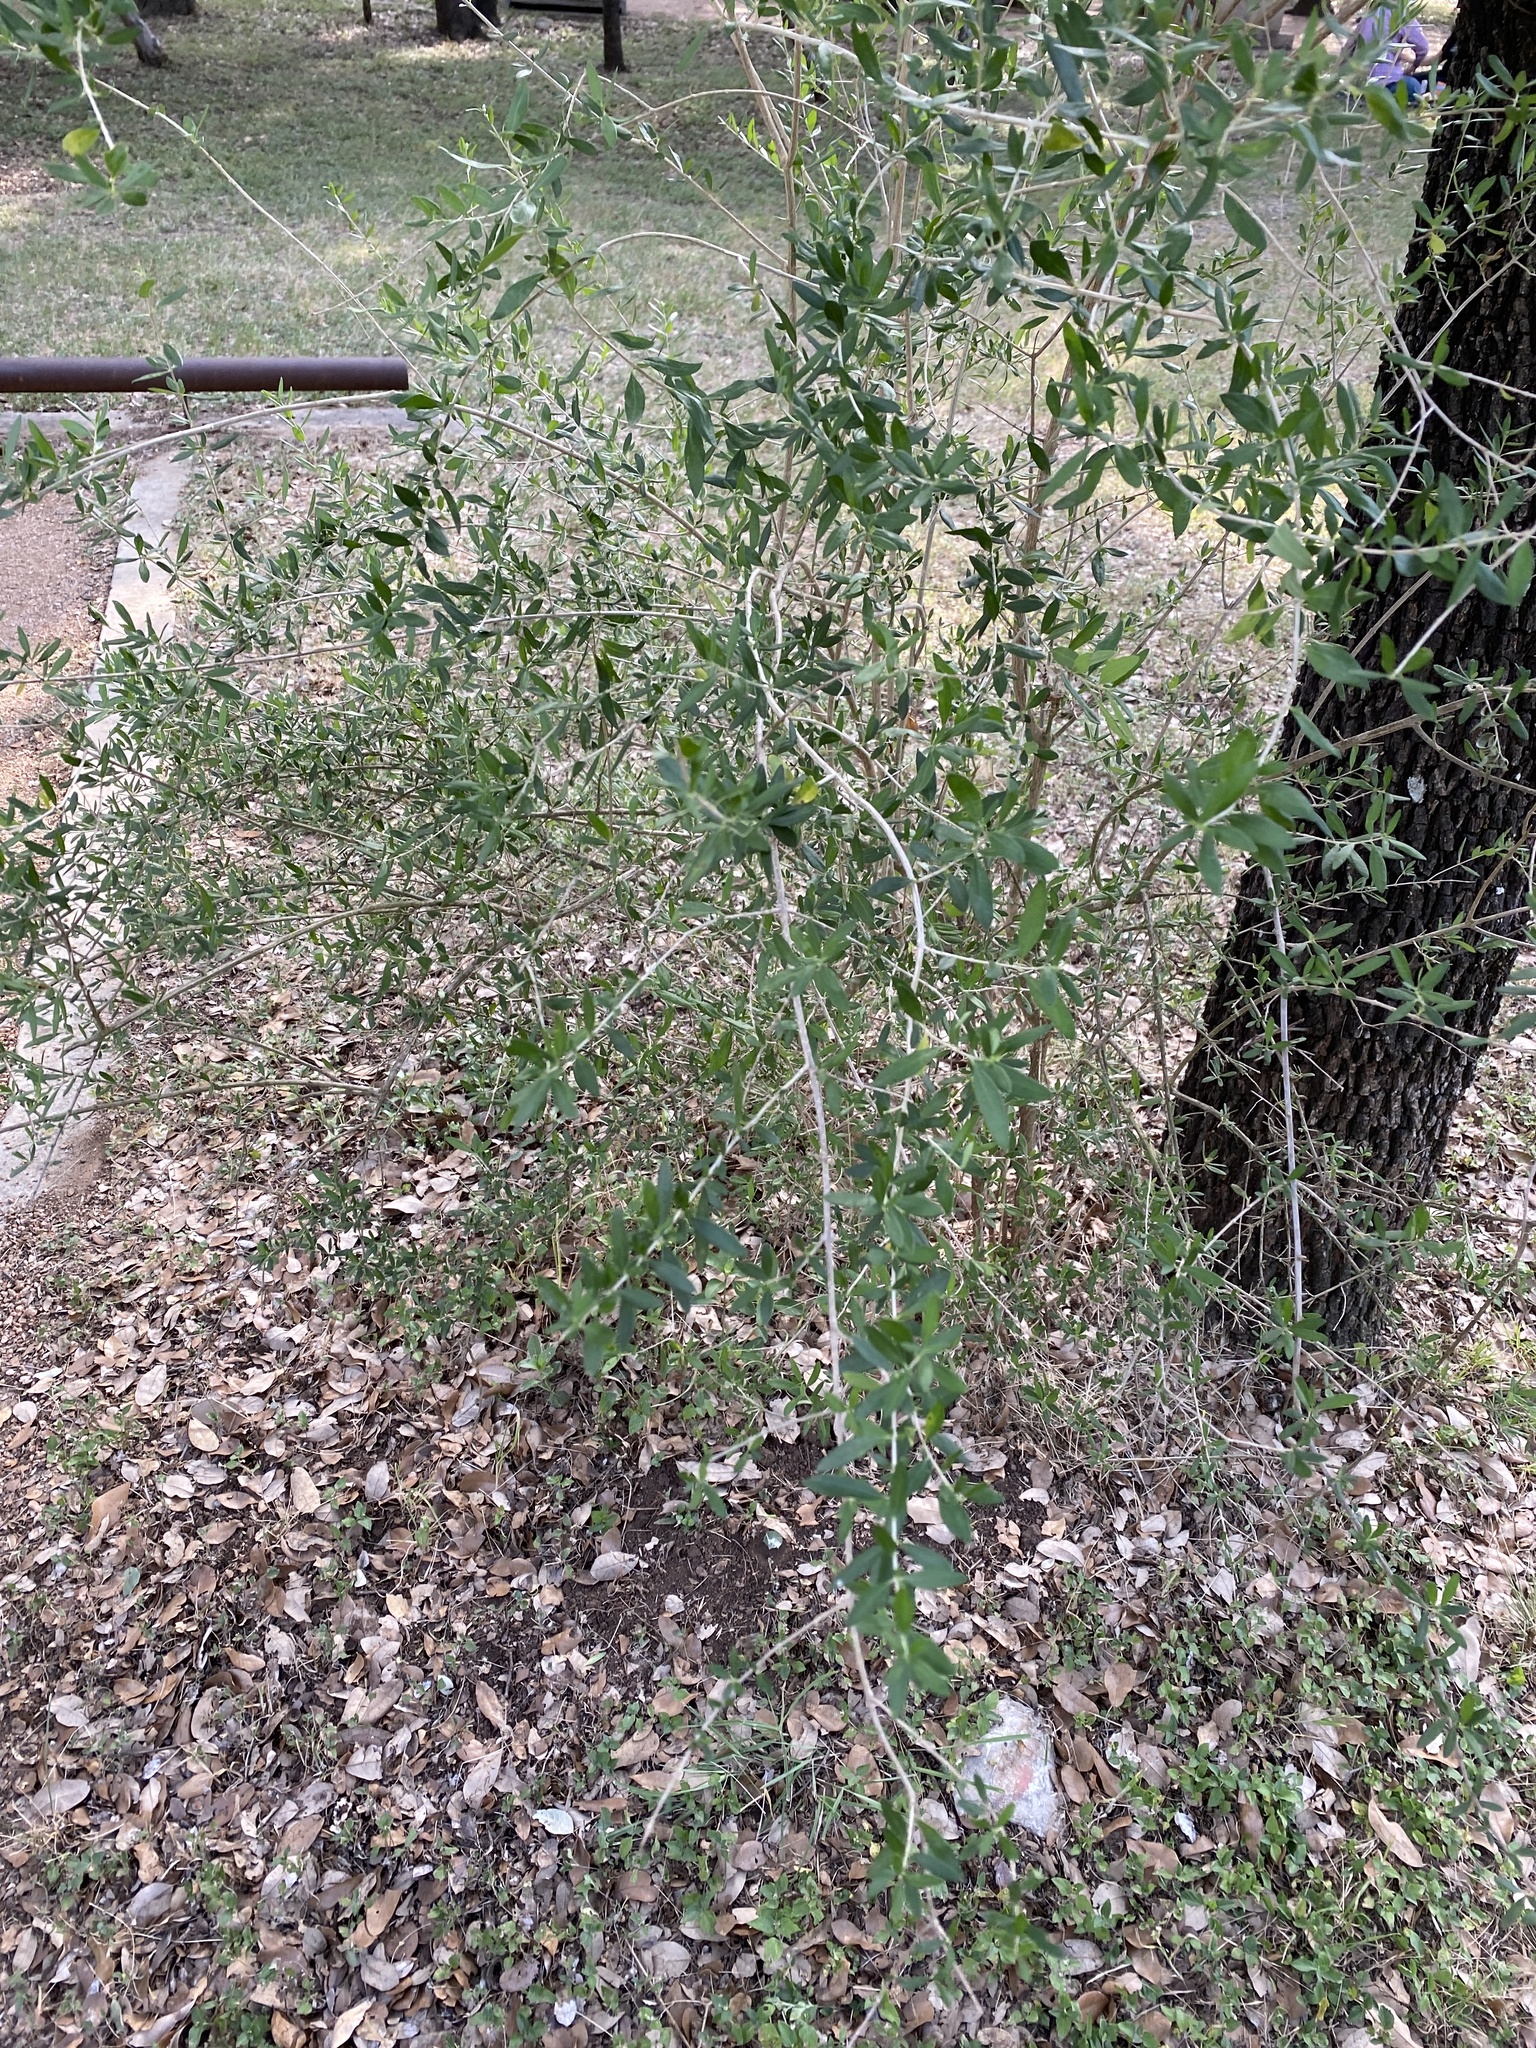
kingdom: Plantae
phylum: Tracheophyta
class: Magnoliopsida
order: Lamiales
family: Verbenaceae
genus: Aloysia
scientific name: Aloysia gratissima
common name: Common bee-brush
